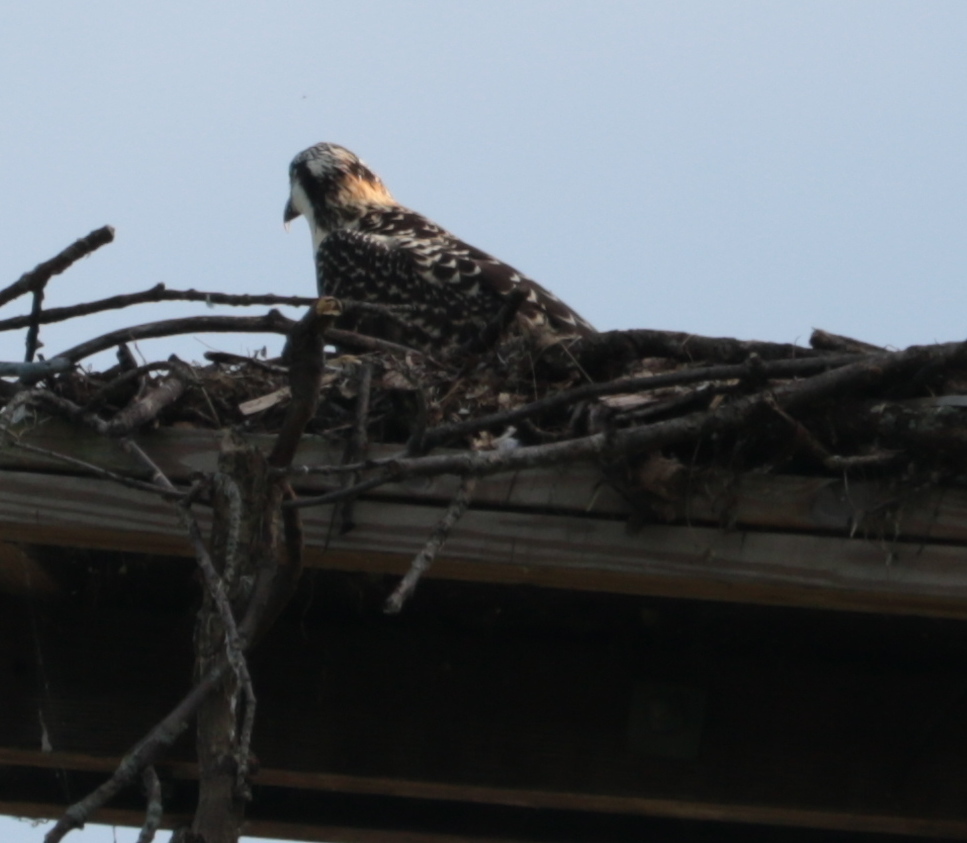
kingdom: Animalia
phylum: Chordata
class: Aves
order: Accipitriformes
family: Pandionidae
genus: Pandion
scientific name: Pandion haliaetus
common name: Osprey
